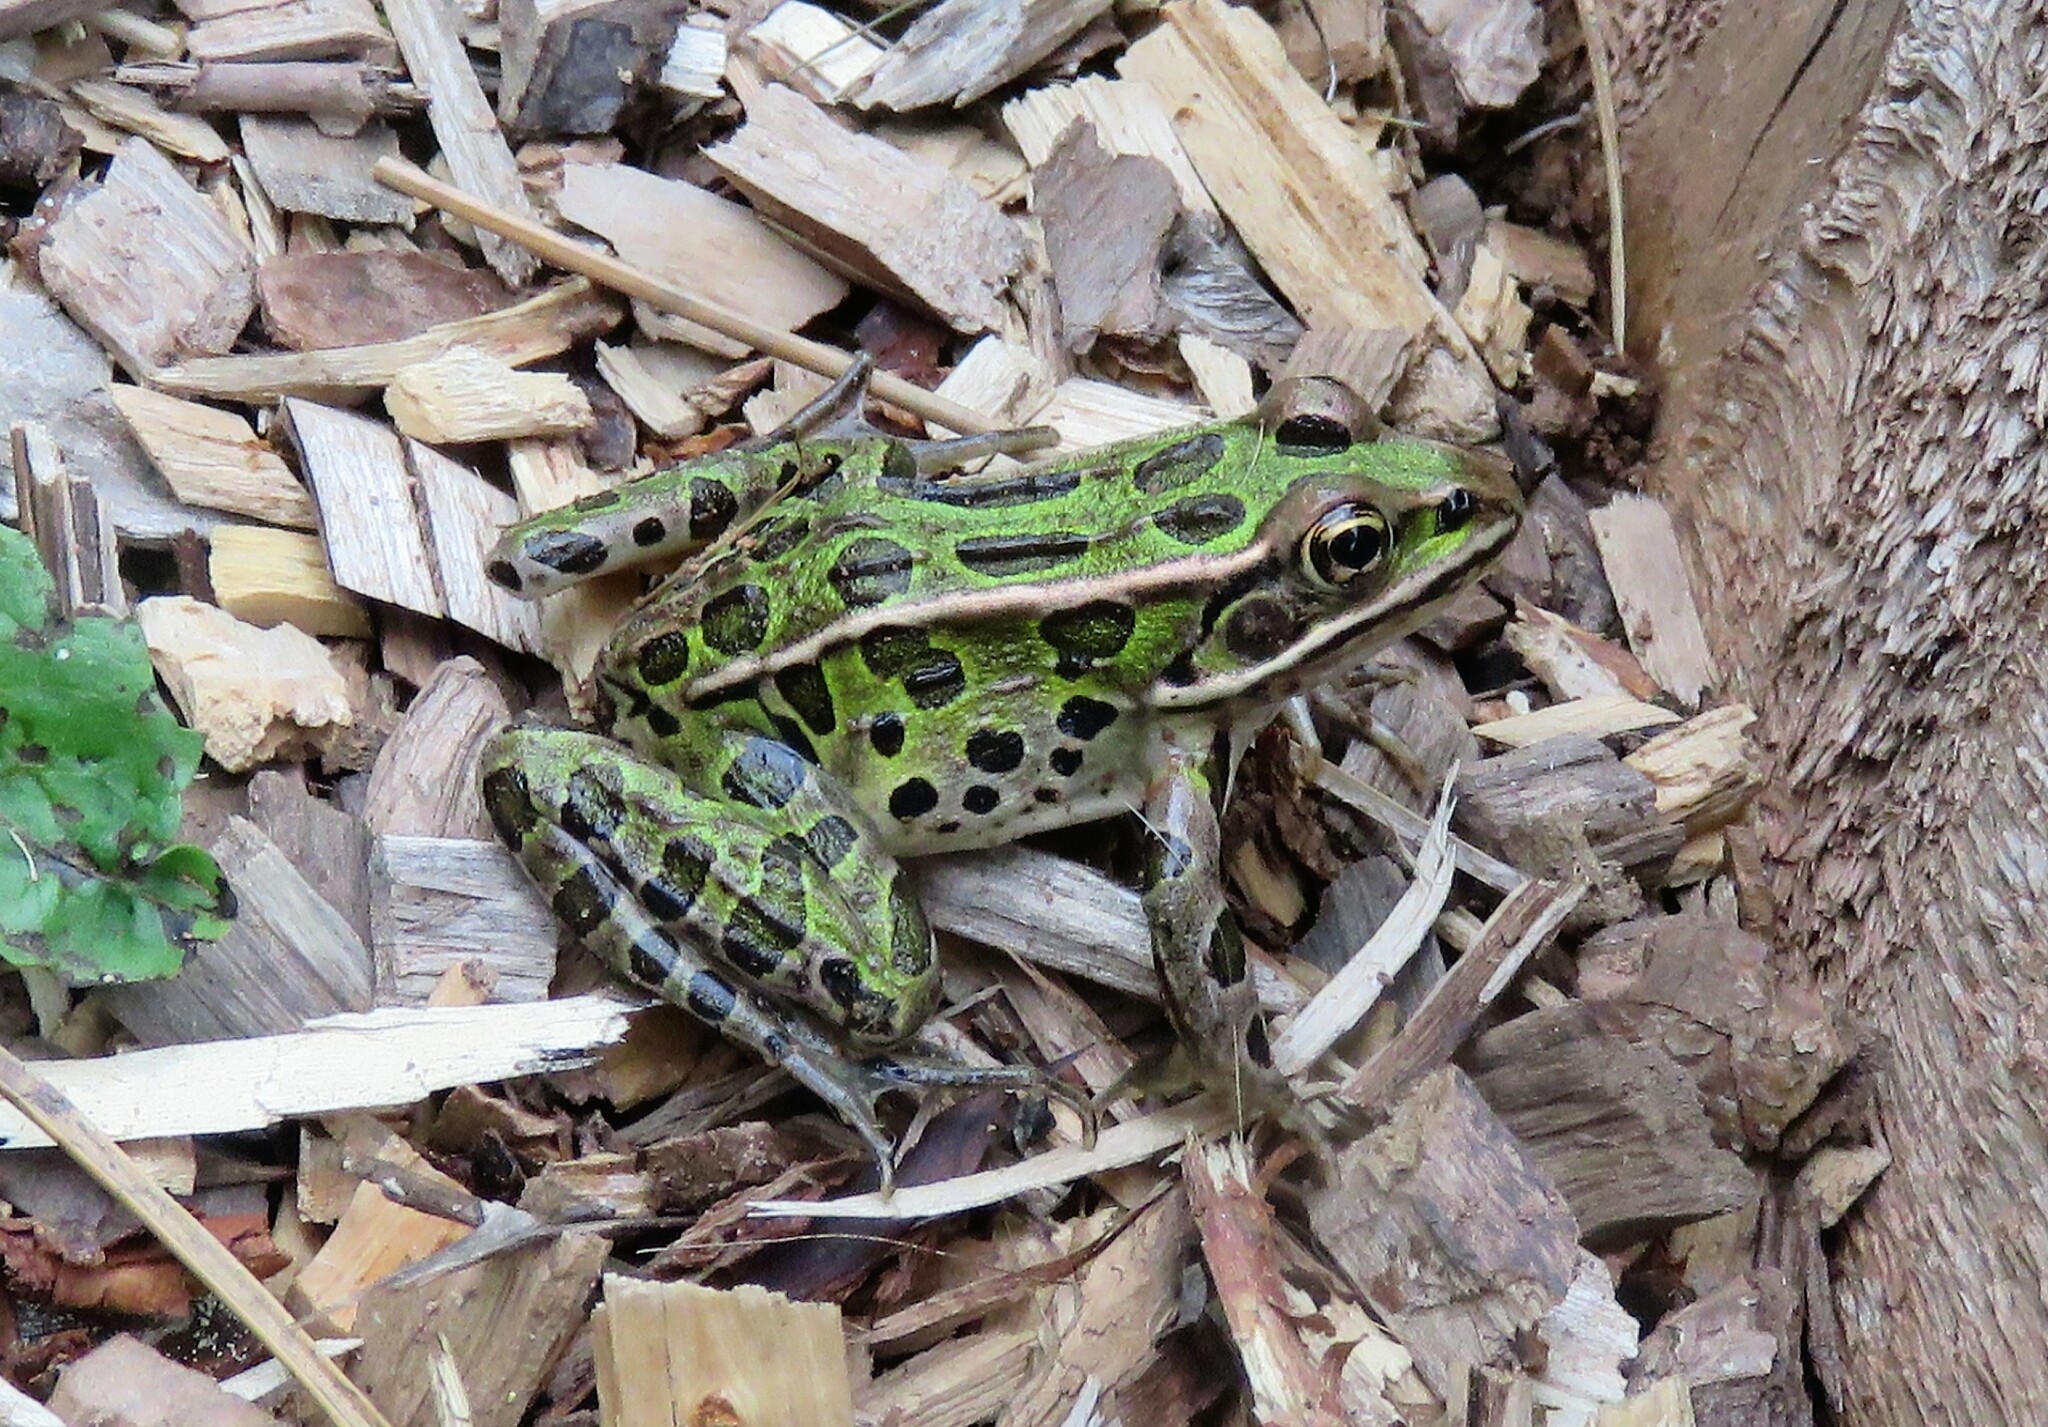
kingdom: Animalia
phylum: Chordata
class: Amphibia
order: Anura
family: Ranidae
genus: Lithobates
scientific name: Lithobates pipiens
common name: Northern leopard frog
